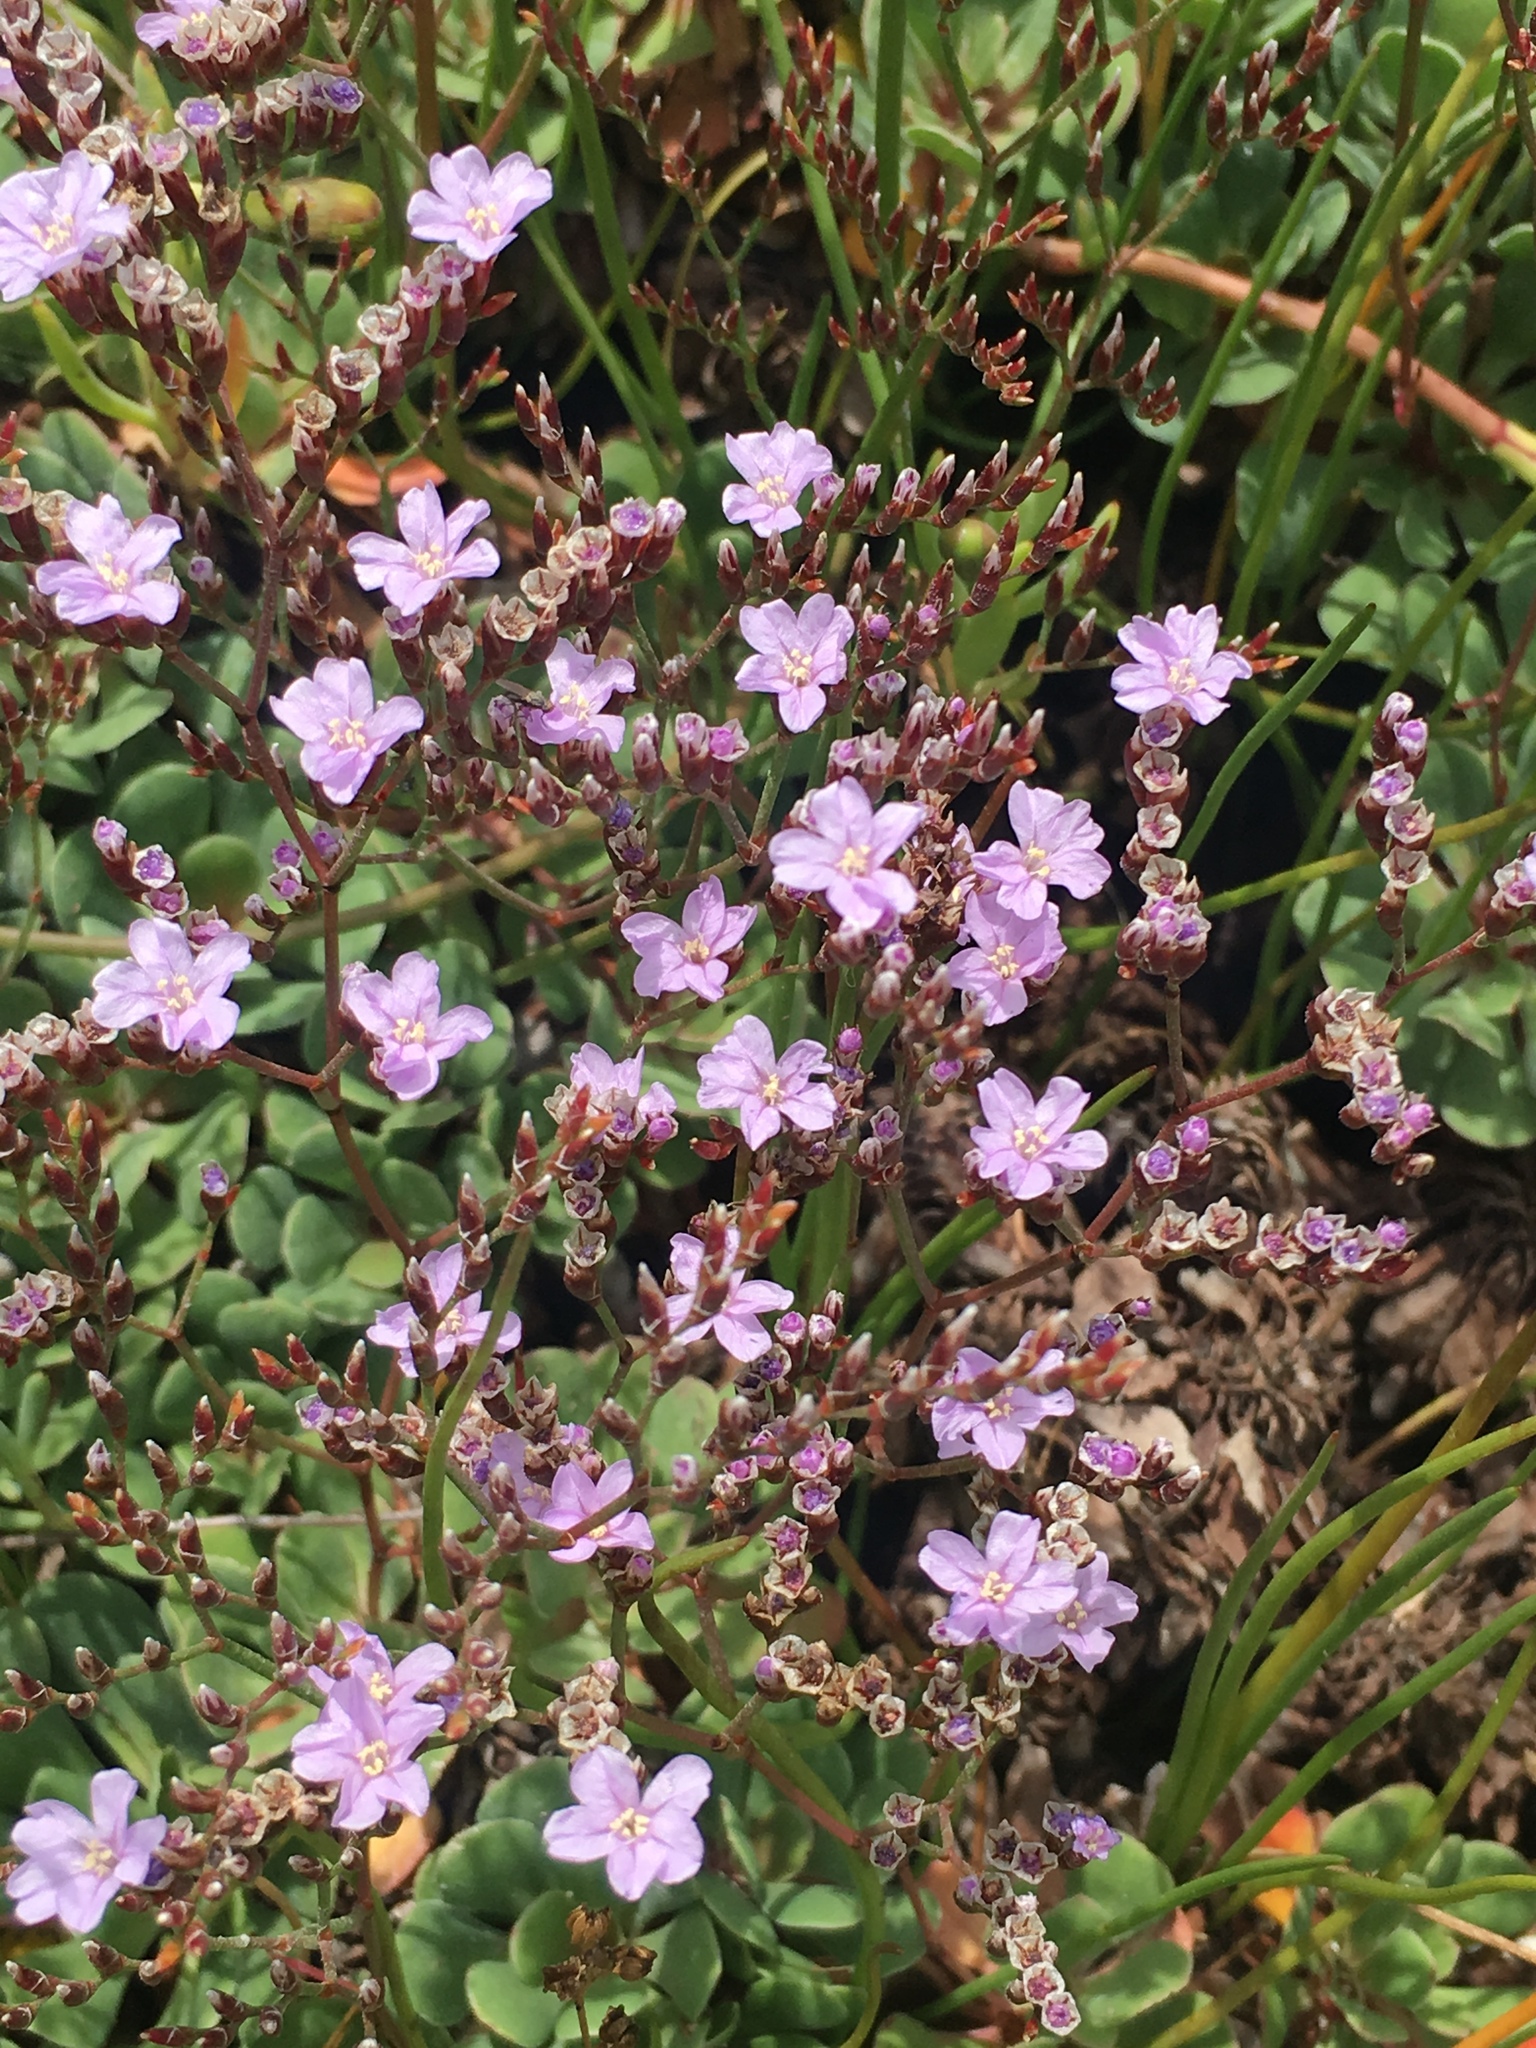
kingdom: Plantae
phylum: Tracheophyta
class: Magnoliopsida
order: Caryophyllales
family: Plumbaginaceae
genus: Limonium
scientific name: Limonium duriusculum
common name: European sea lavendar
